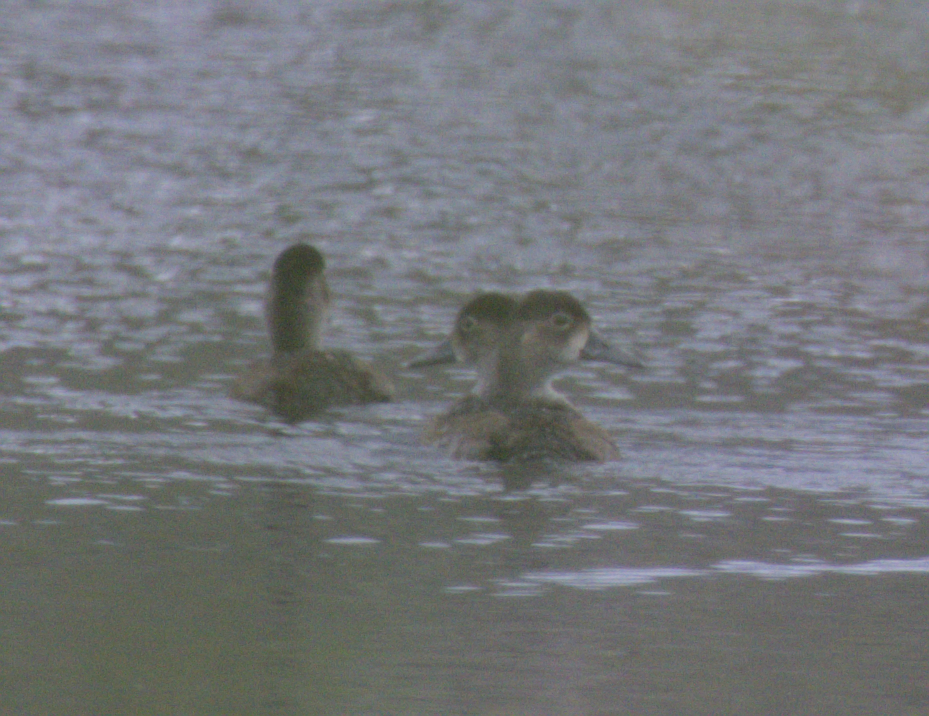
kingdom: Animalia
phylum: Chordata
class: Aves
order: Anseriformes
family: Anatidae
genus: Aythya
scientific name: Aythya collaris
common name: Ring-necked duck
